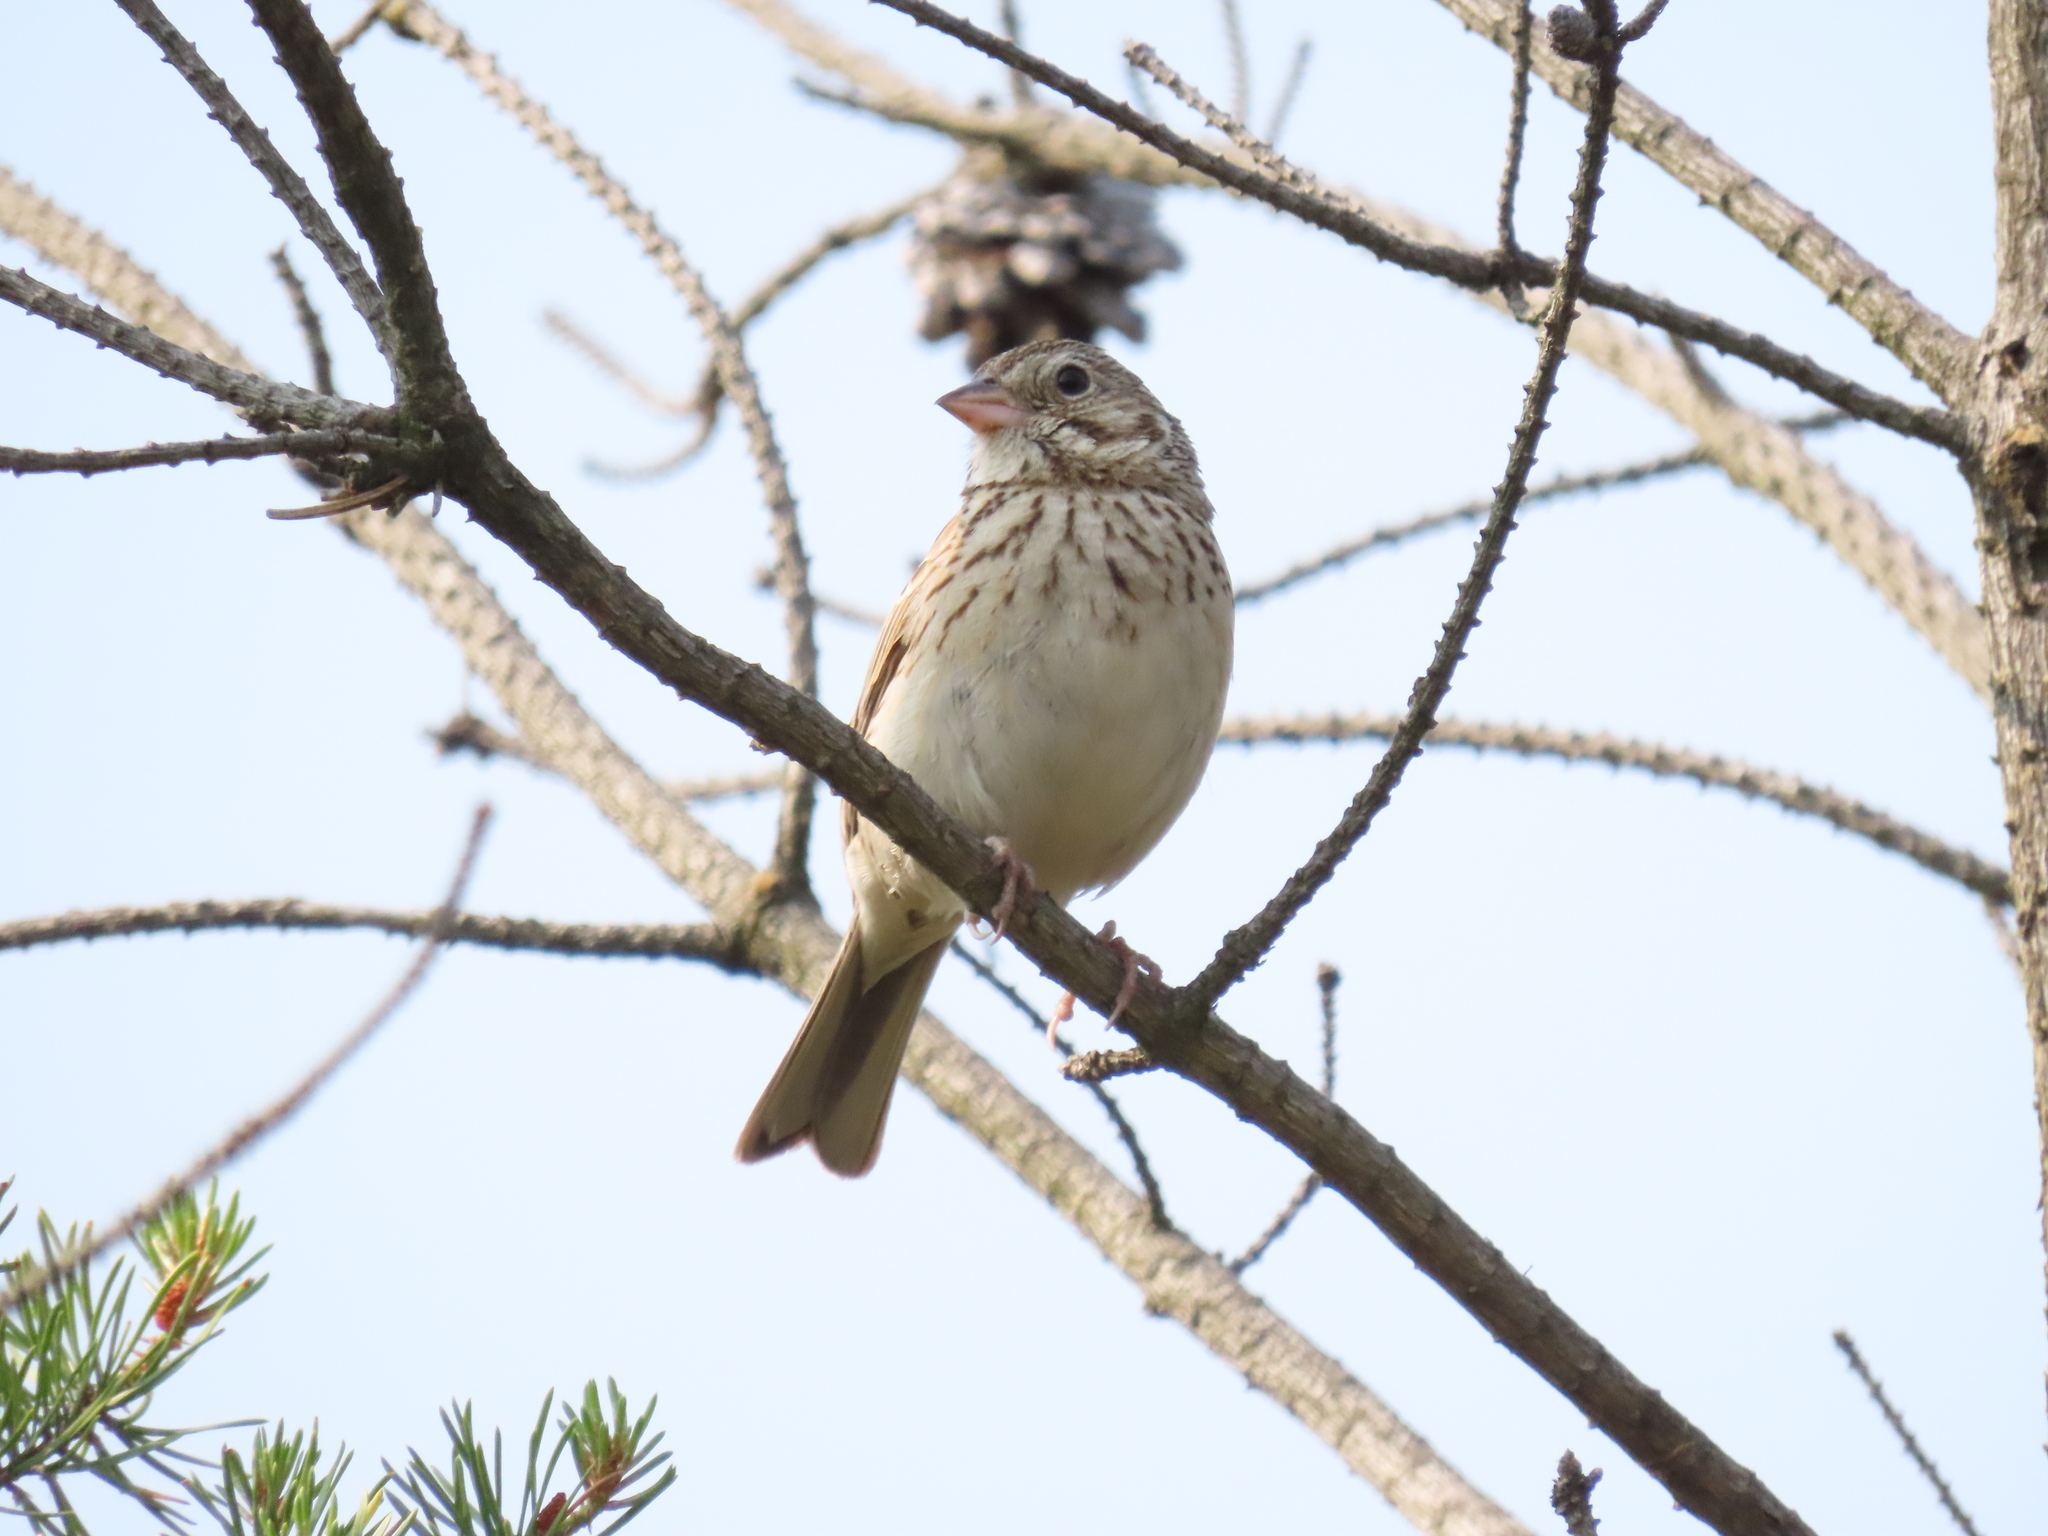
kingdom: Animalia
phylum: Chordata
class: Aves
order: Passeriformes
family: Passerellidae
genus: Pooecetes
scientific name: Pooecetes gramineus
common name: Vesper sparrow
